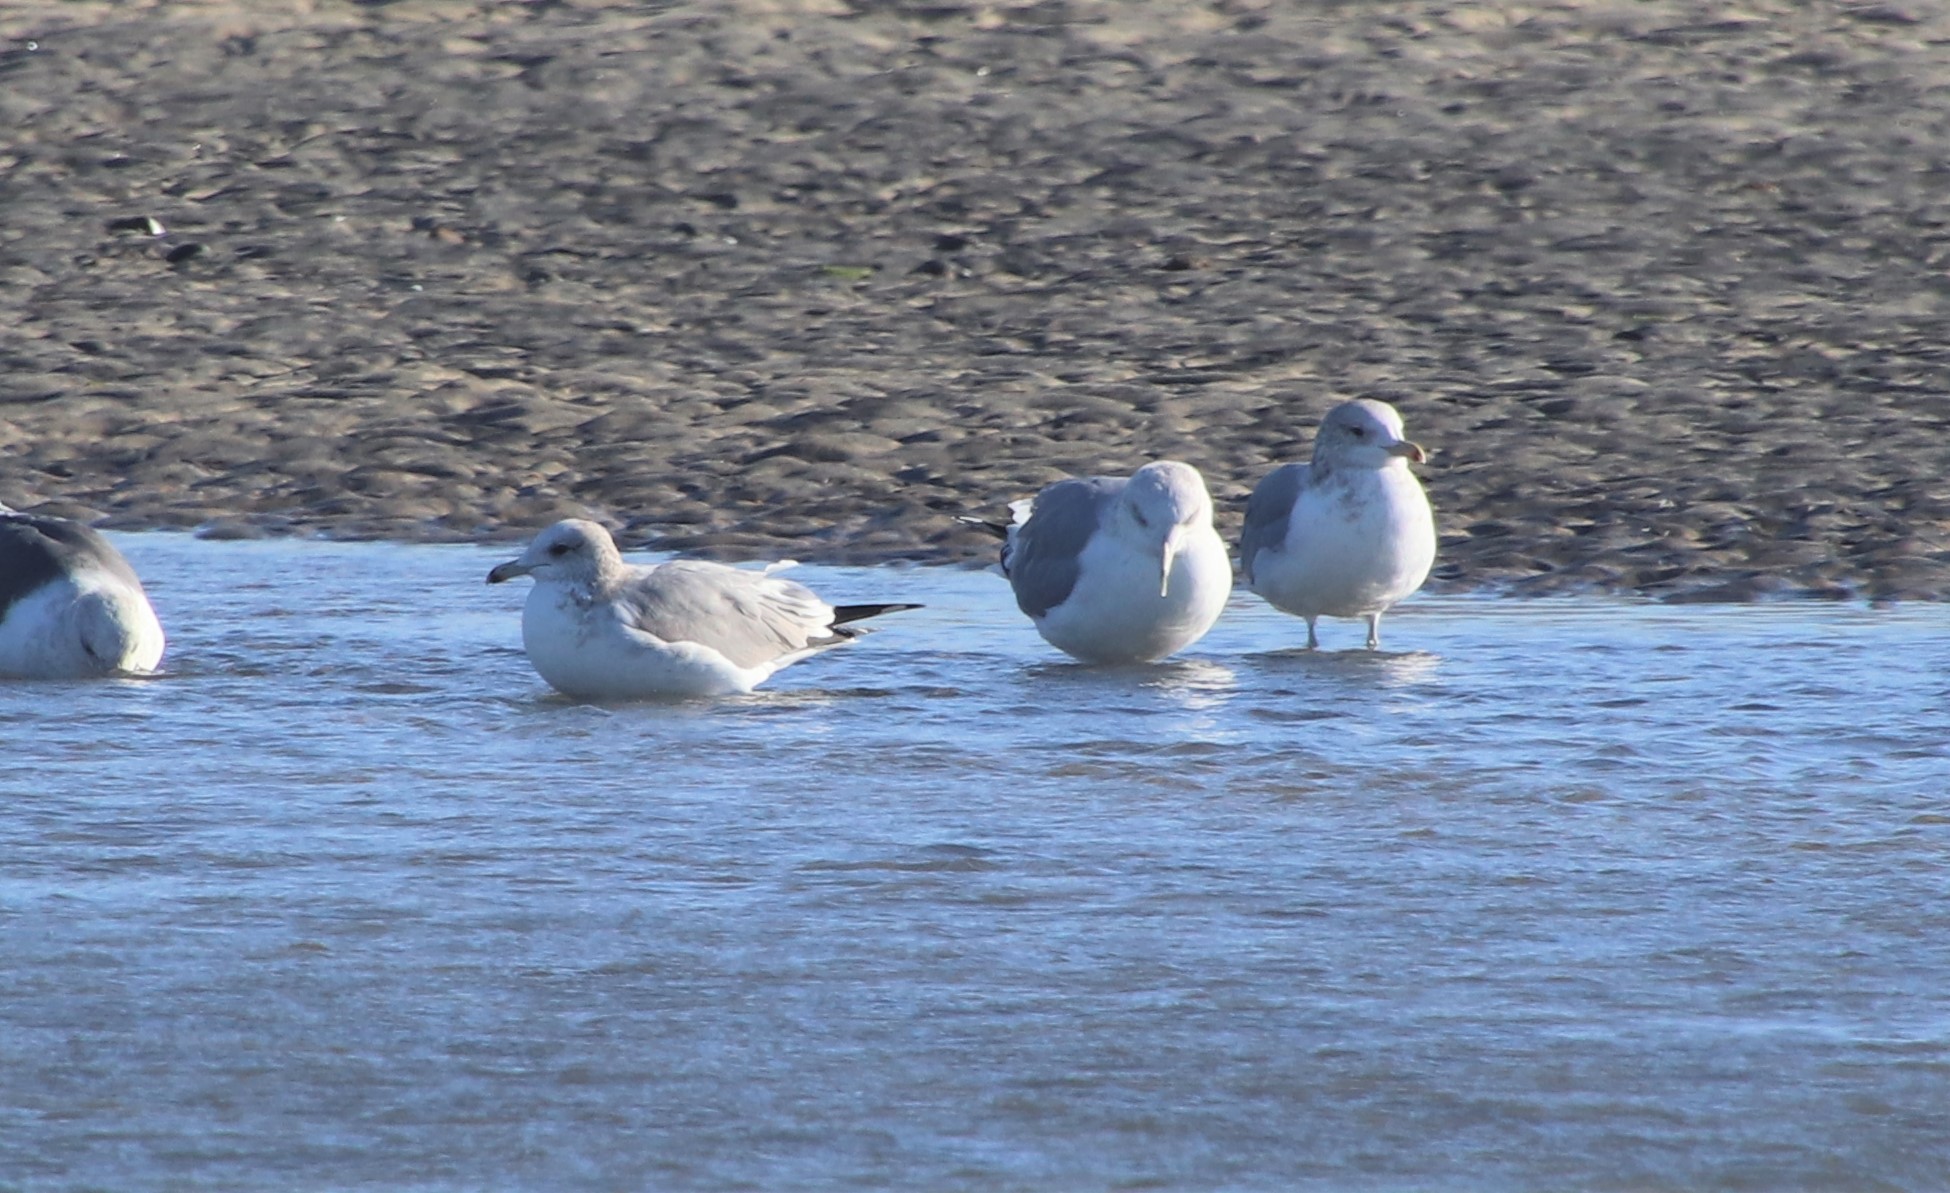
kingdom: Animalia
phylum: Chordata
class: Aves
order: Charadriiformes
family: Laridae
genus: Larus
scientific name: Larus californicus
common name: California gull
